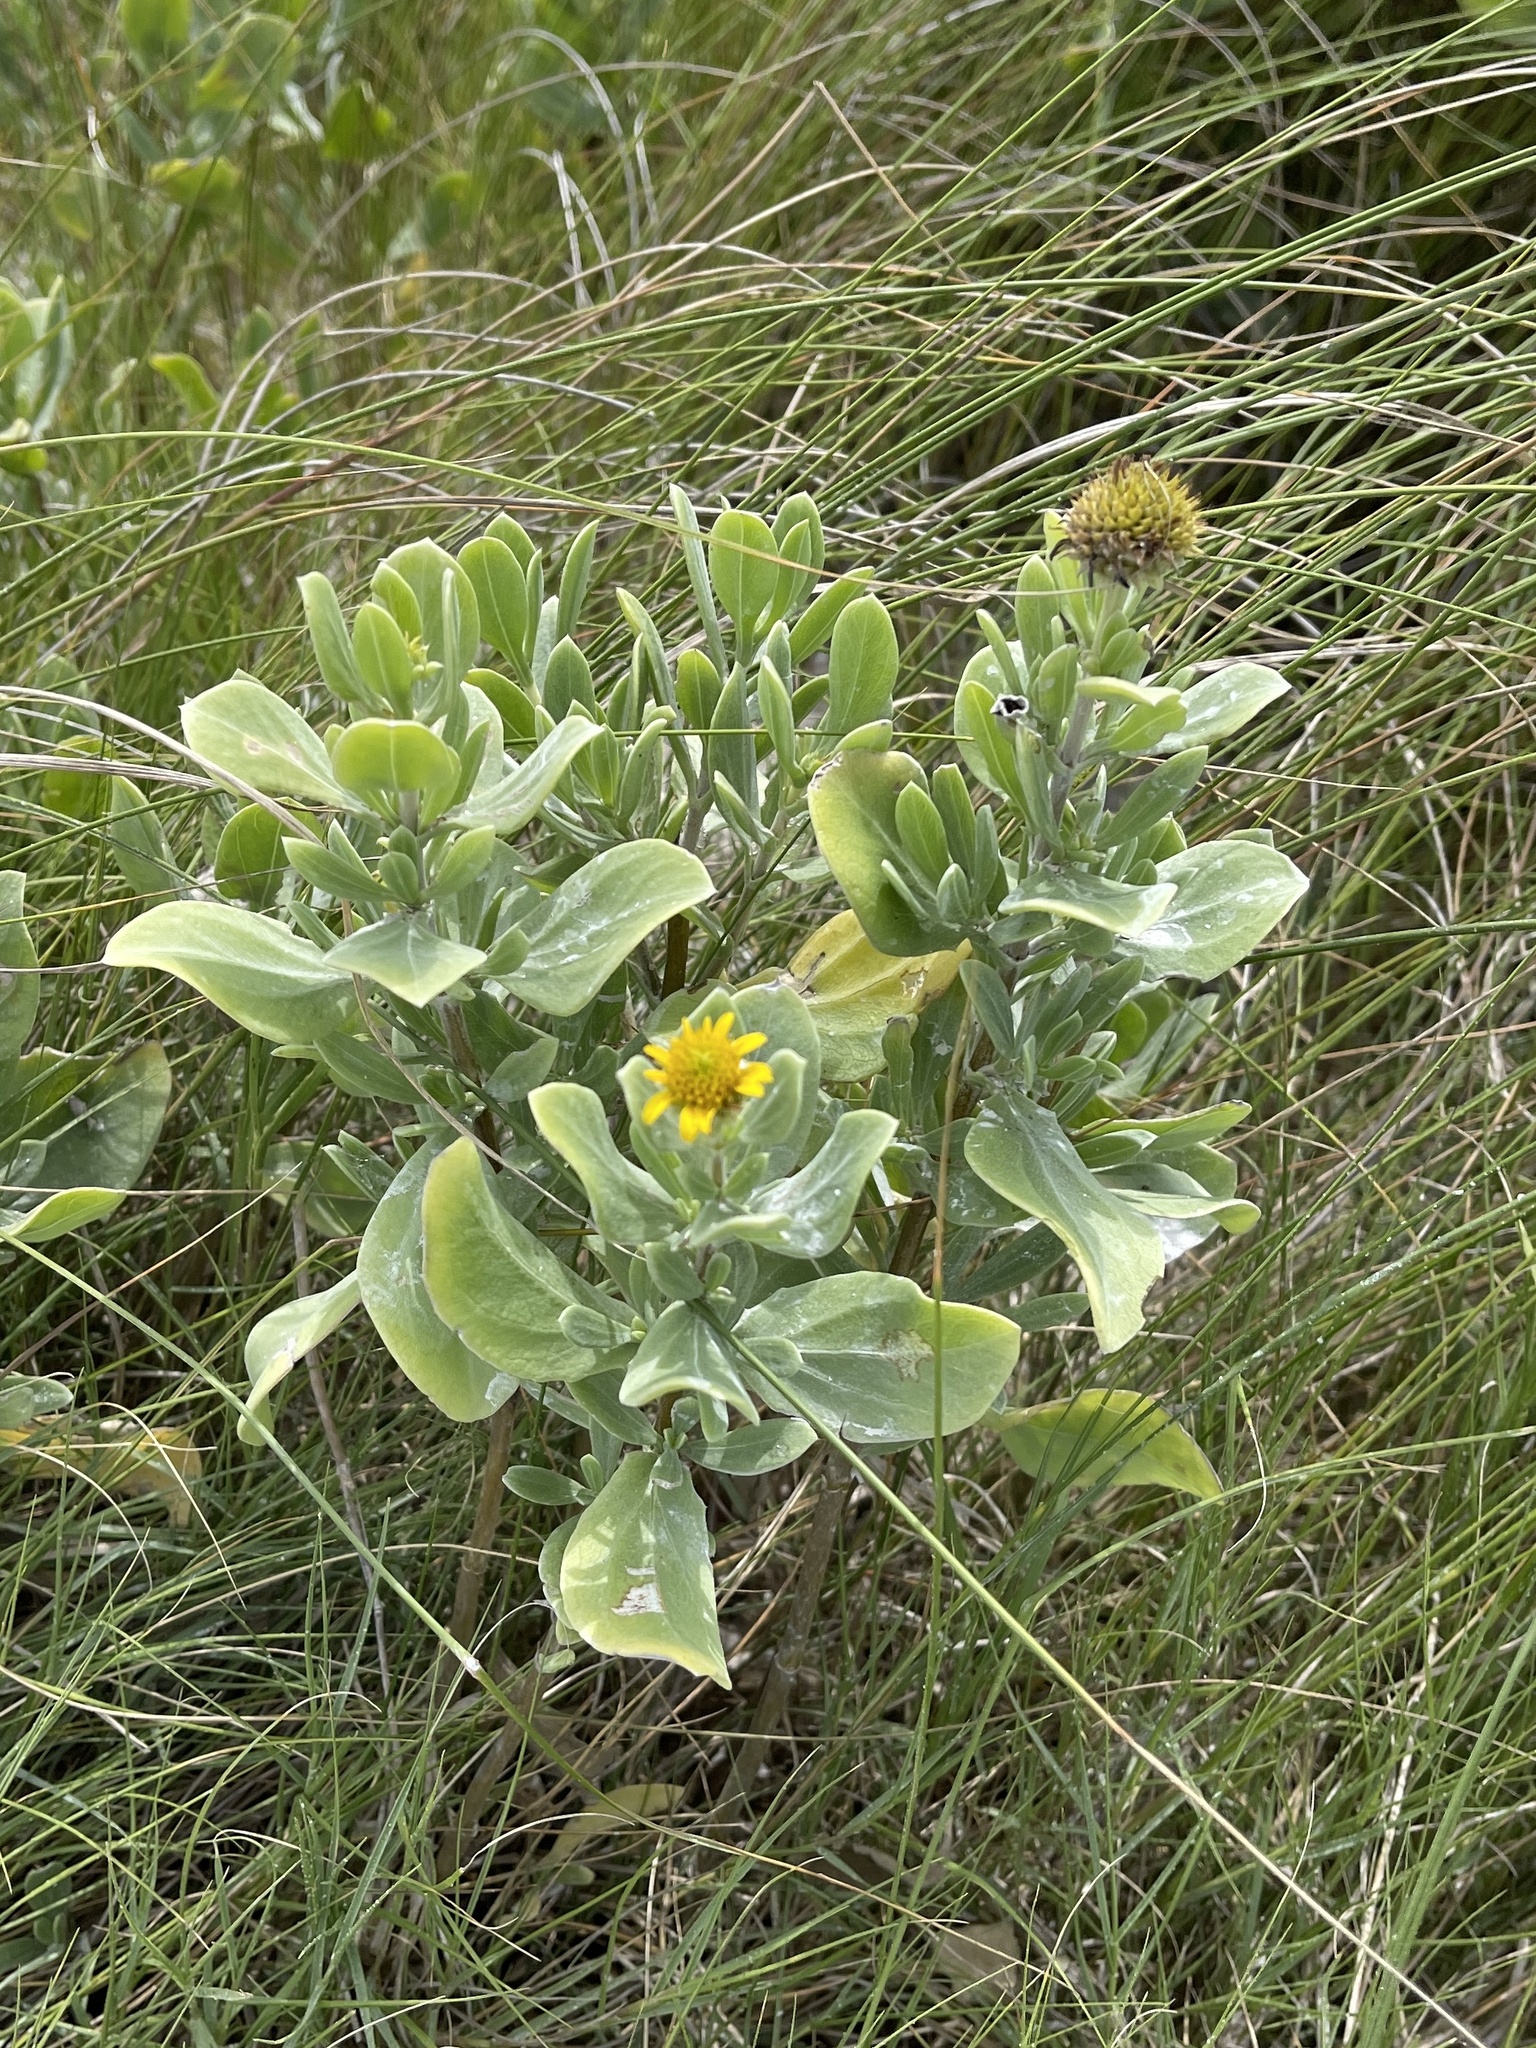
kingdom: Plantae
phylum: Tracheophyta
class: Magnoliopsida
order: Asterales
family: Asteraceae
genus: Borrichia
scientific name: Borrichia frutescens
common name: Sea oxeye
